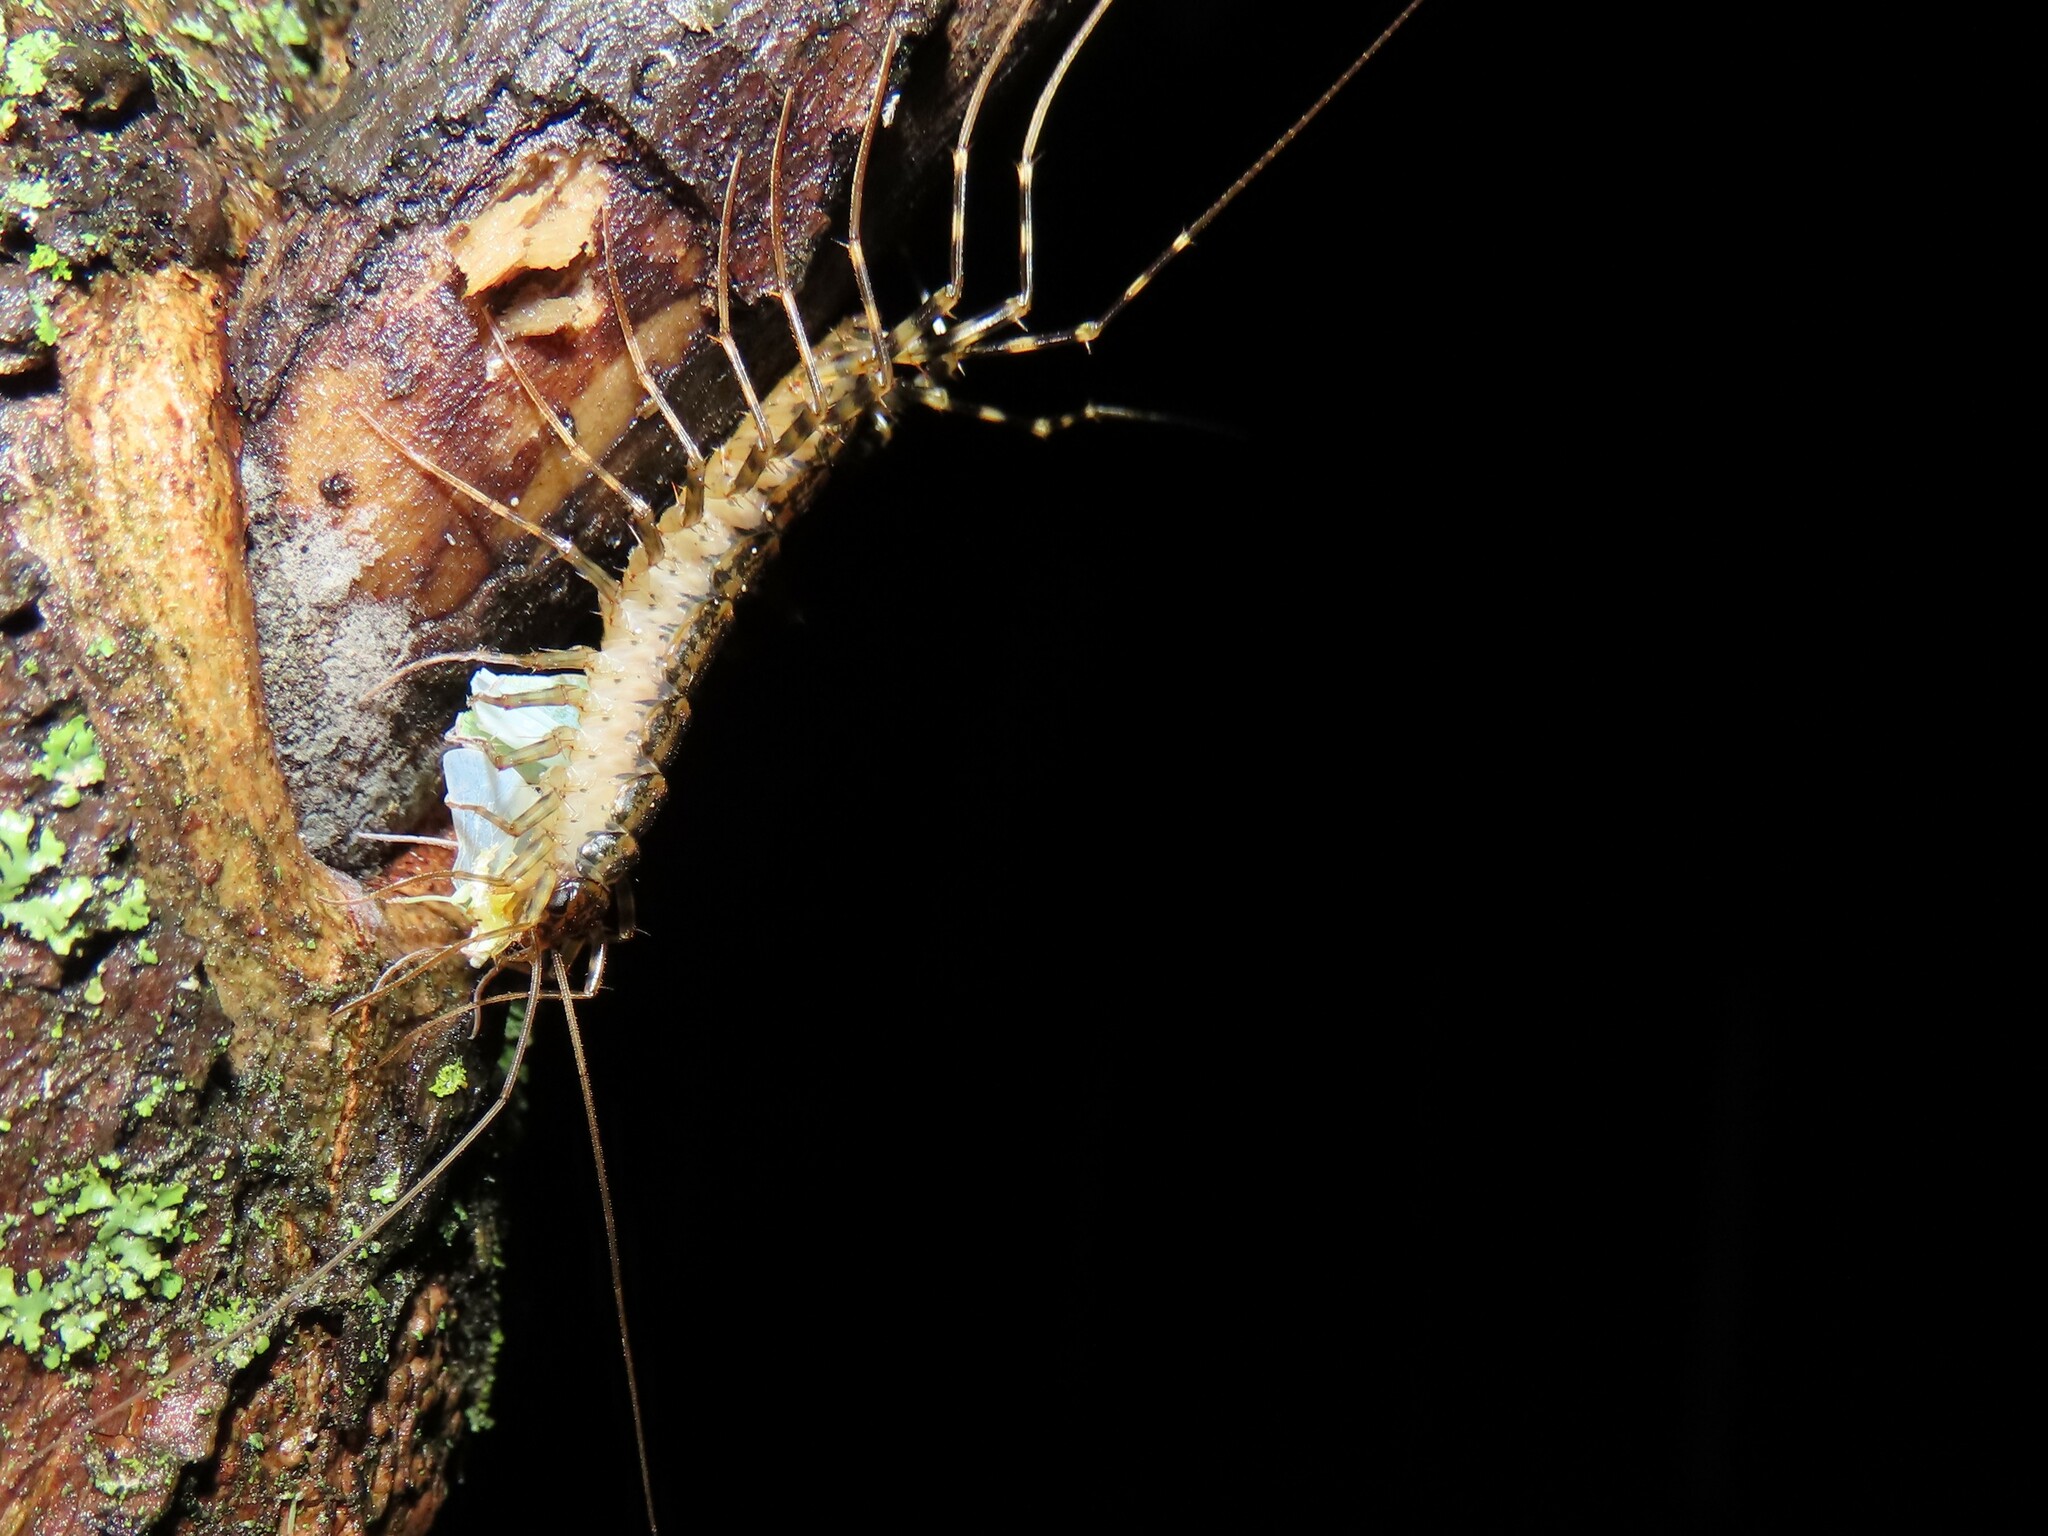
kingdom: Animalia
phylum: Arthropoda
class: Chilopoda
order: Scutigeromorpha
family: Scutigeridae
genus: Thereuonema
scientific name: Thereuonema tuberculata
